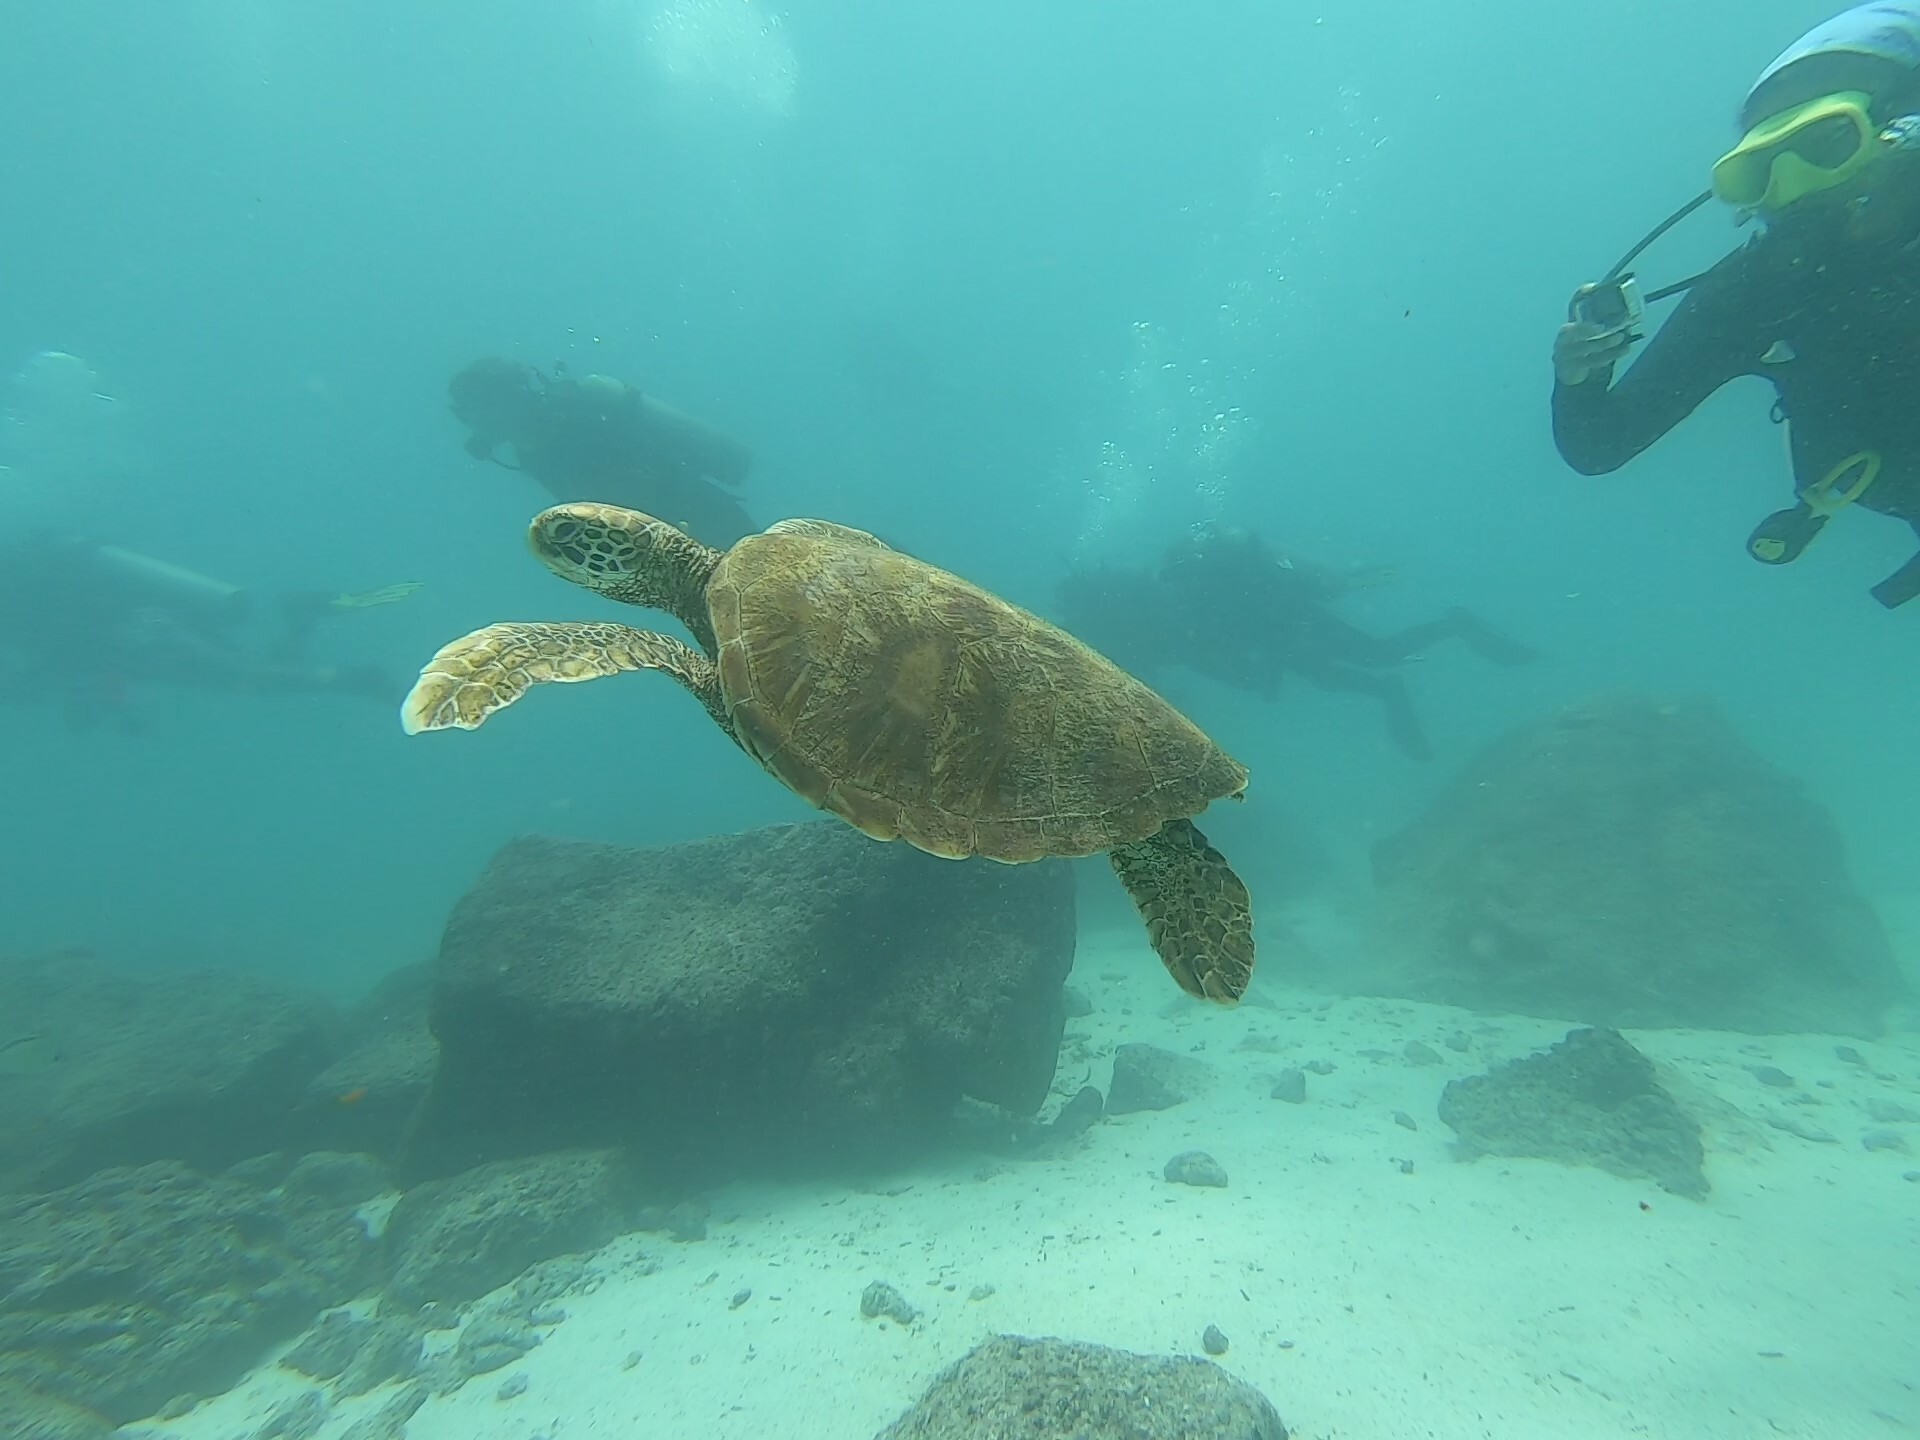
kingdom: Animalia
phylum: Chordata
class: Testudines
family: Cheloniidae
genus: Chelonia
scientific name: Chelonia mydas
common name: Green turtle
